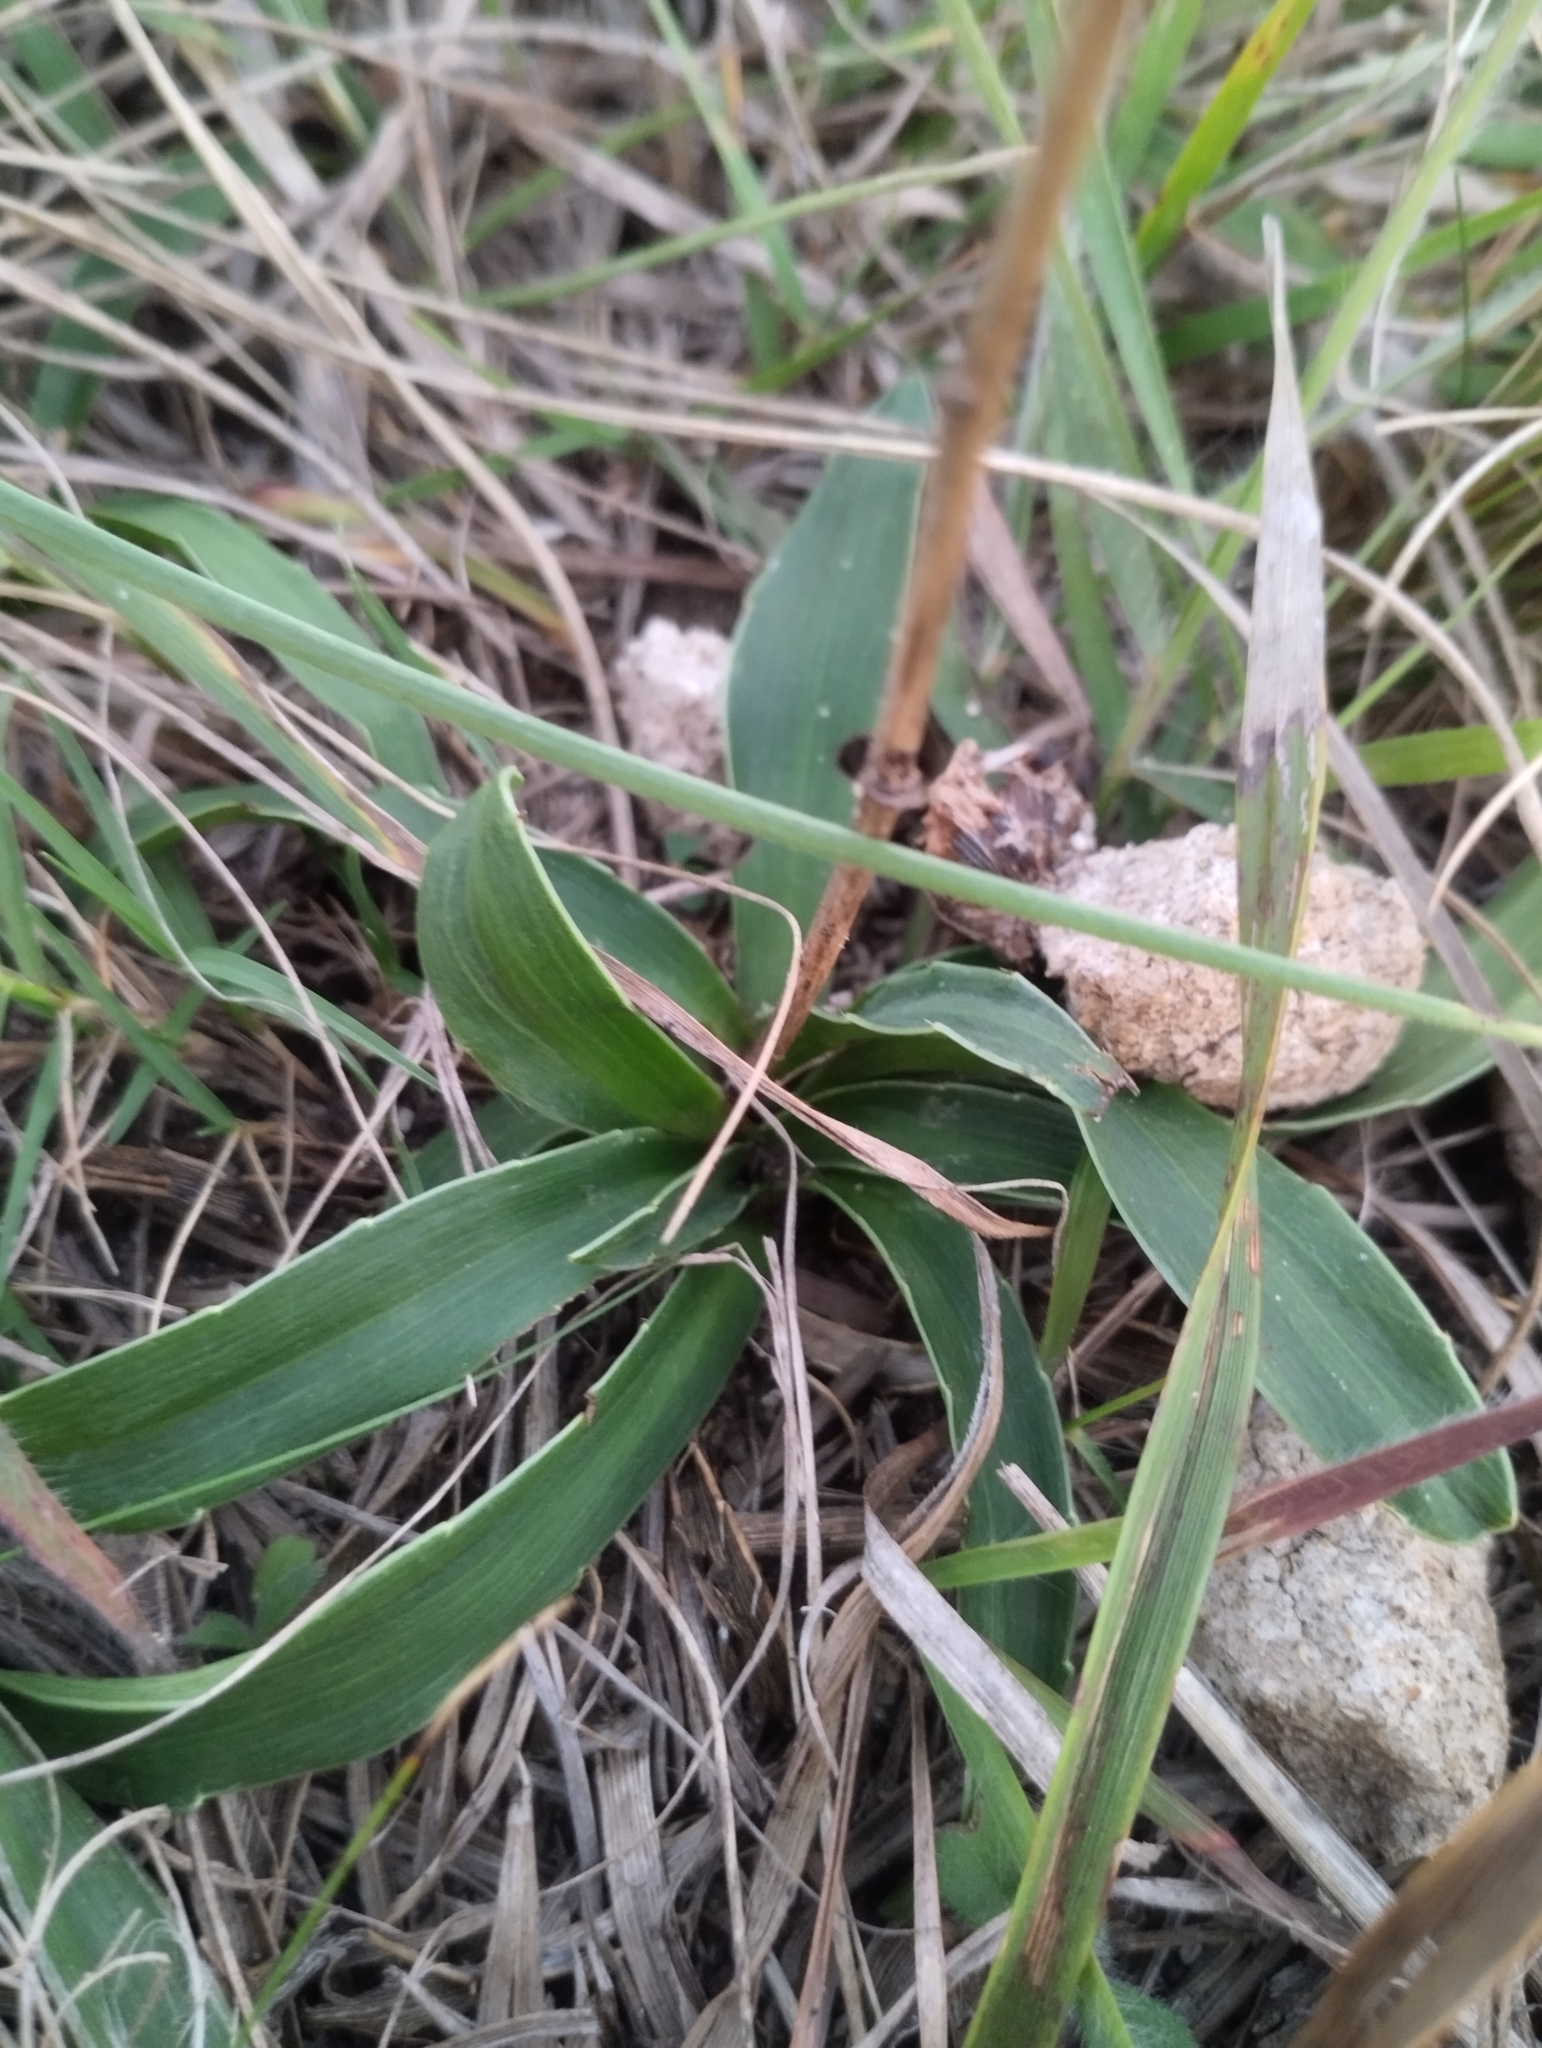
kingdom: Plantae
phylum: Tracheophyta
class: Magnoliopsida
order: Apiales
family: Apiaceae
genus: Eryngium
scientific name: Eryngium sanguisorba
